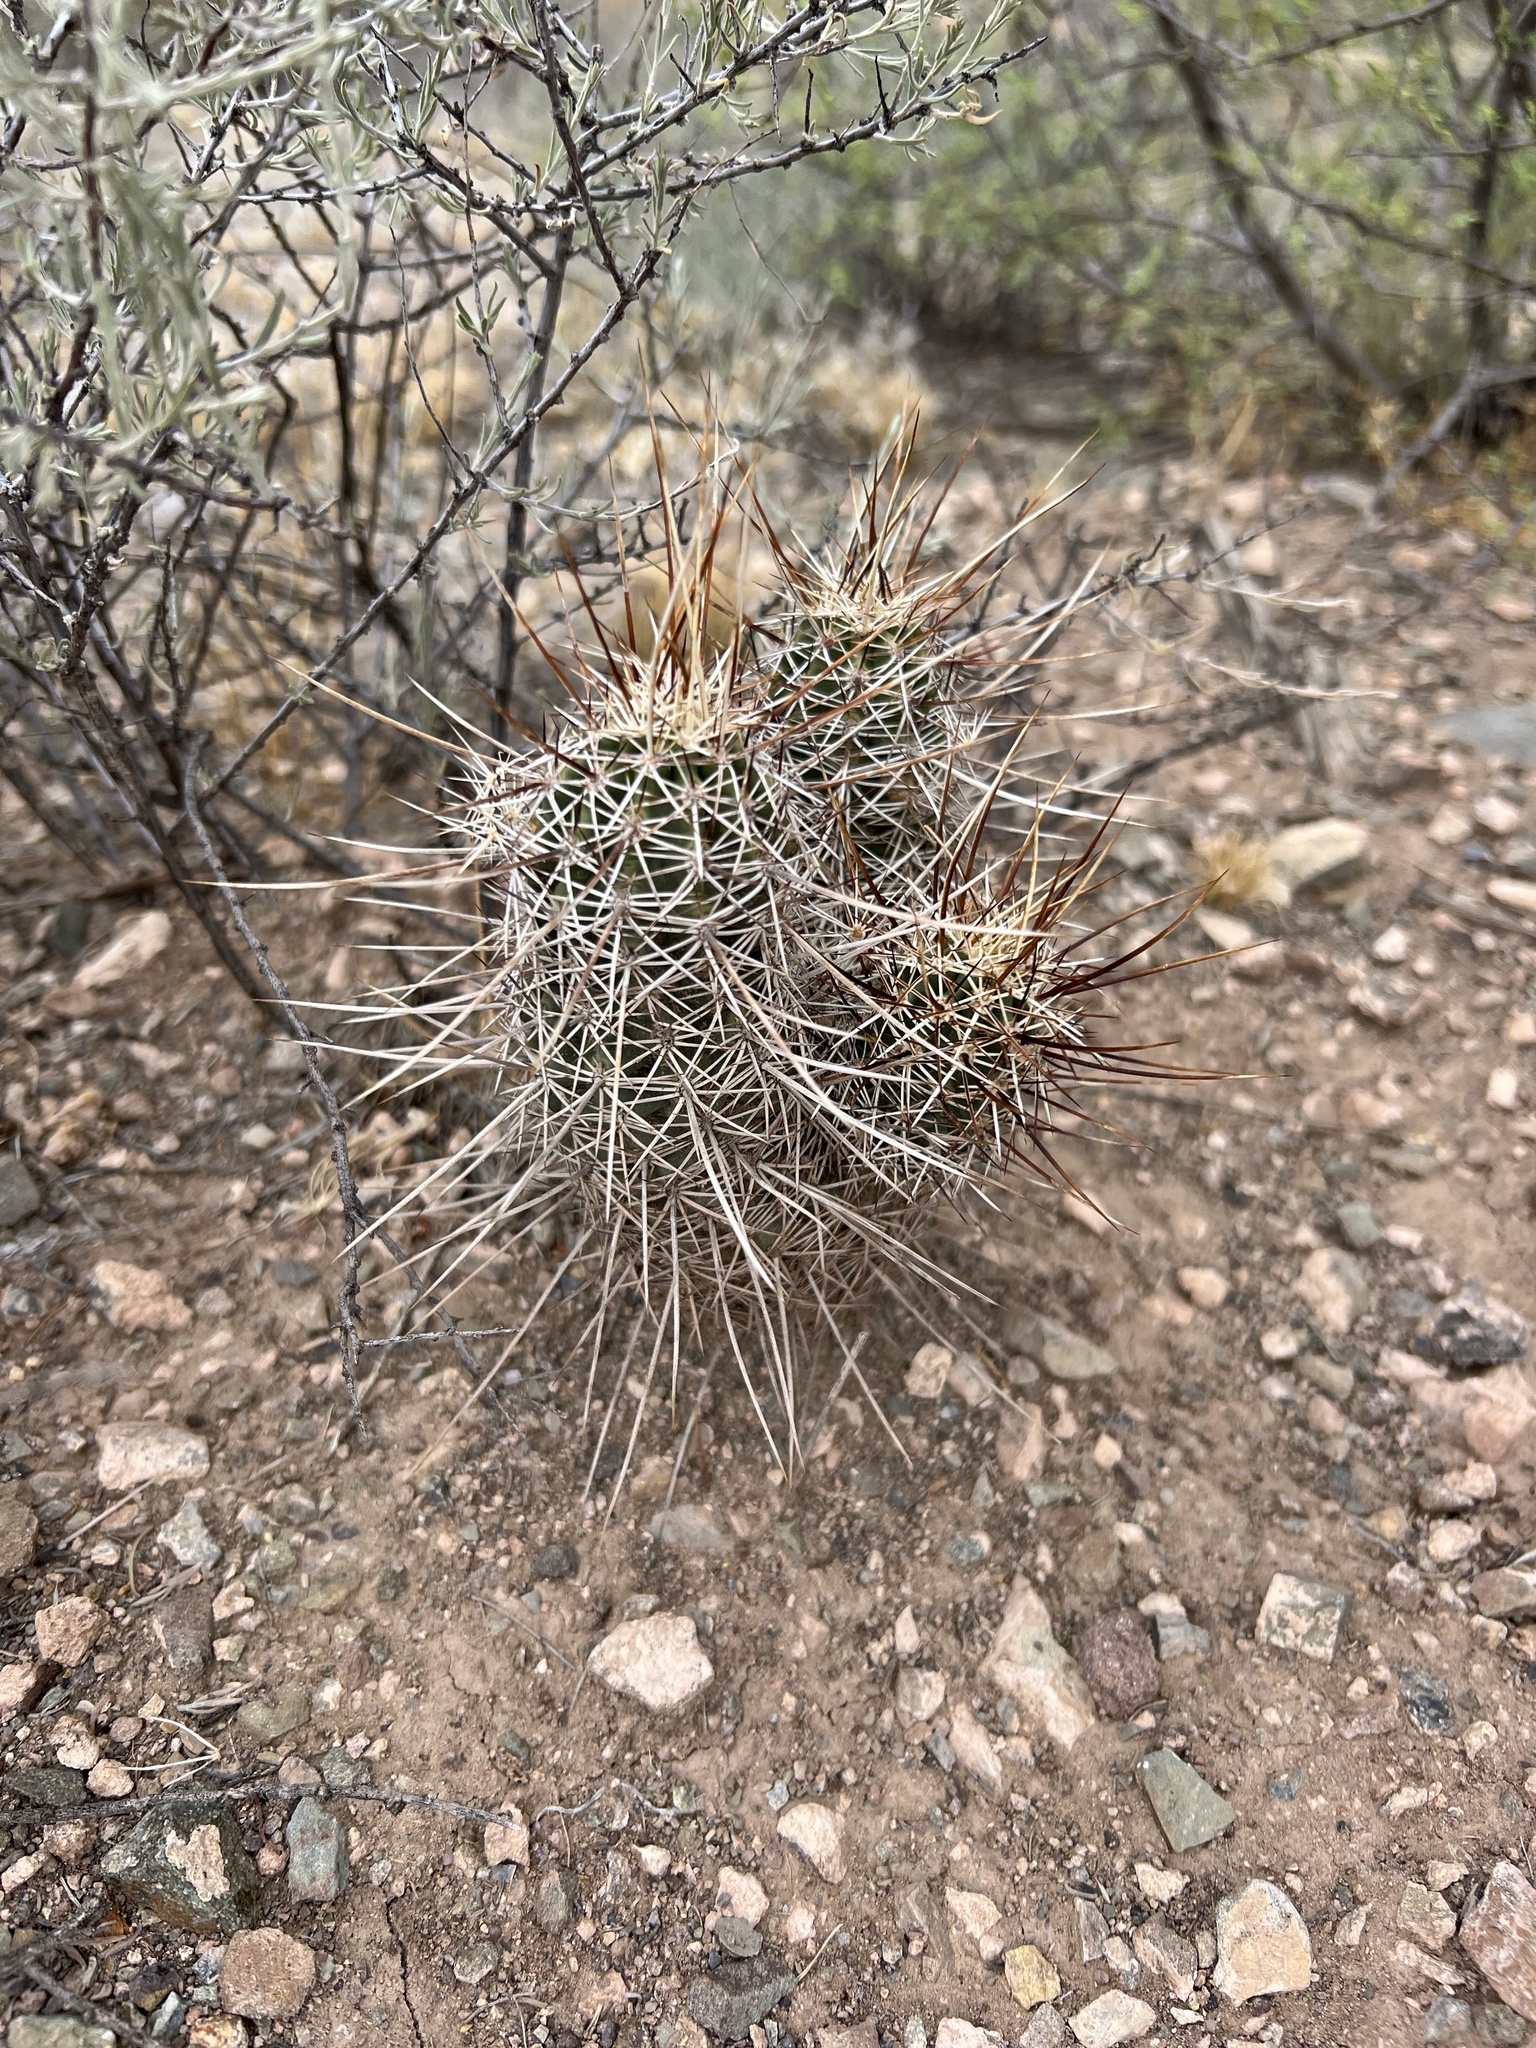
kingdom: Plantae
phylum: Tracheophyta
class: Magnoliopsida
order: Caryophyllales
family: Cactaceae
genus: Echinocereus
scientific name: Echinocereus fasciculatus
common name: Bundle hedgehog
